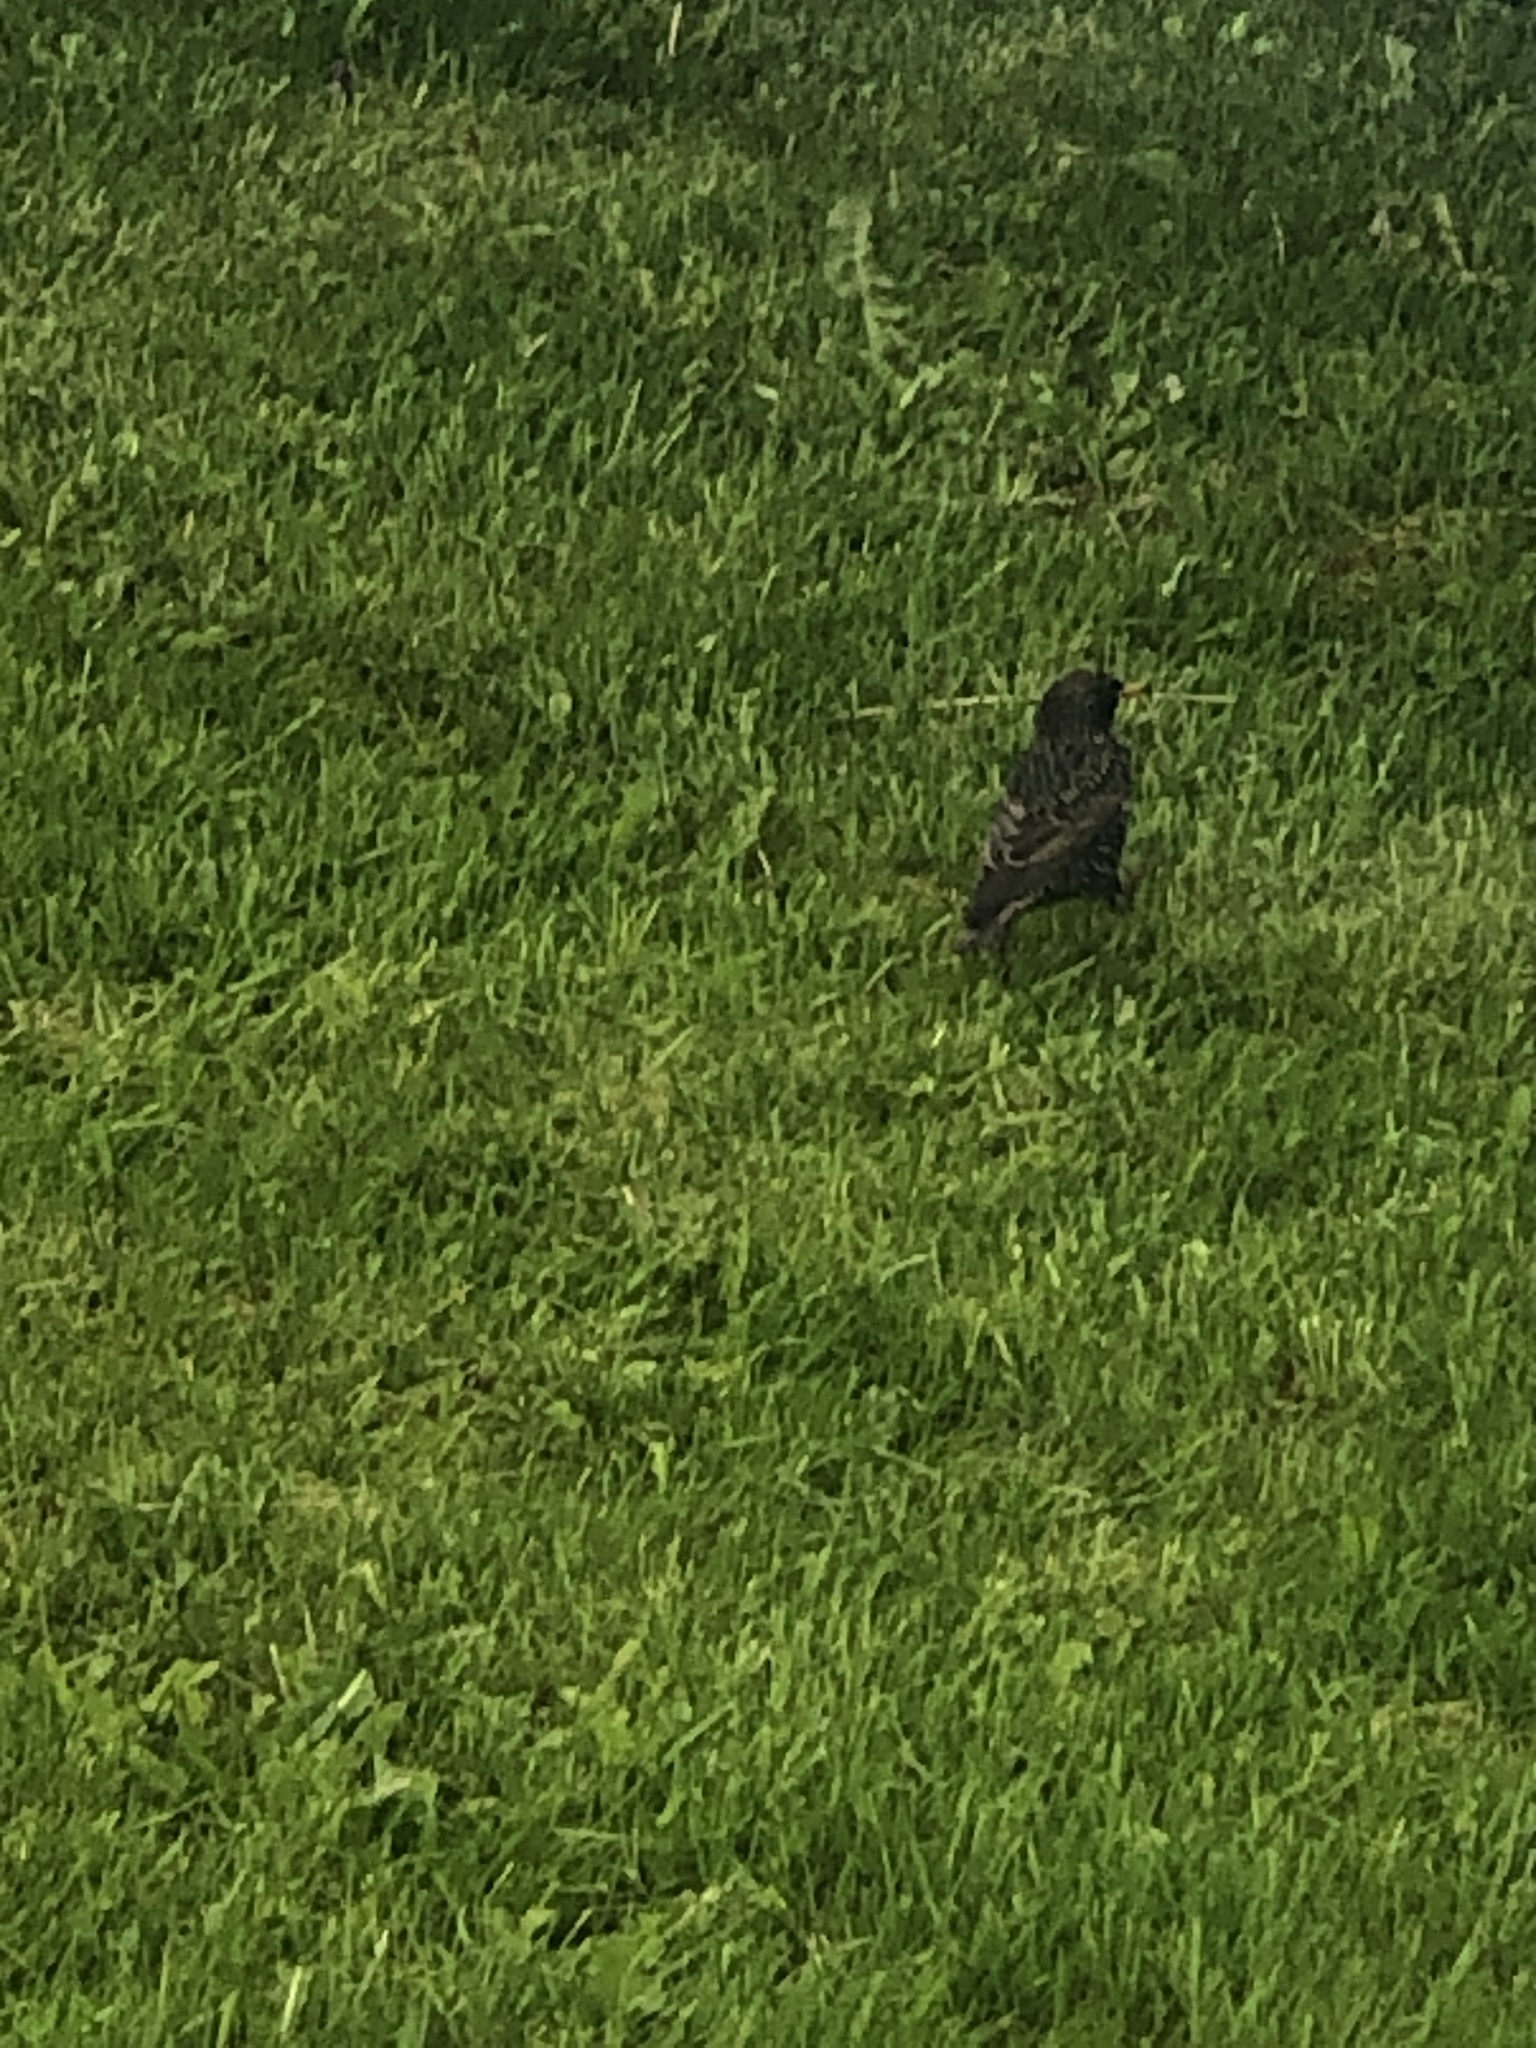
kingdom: Animalia
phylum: Chordata
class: Aves
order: Passeriformes
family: Sturnidae
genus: Sturnus
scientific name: Sturnus vulgaris
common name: Common starling
